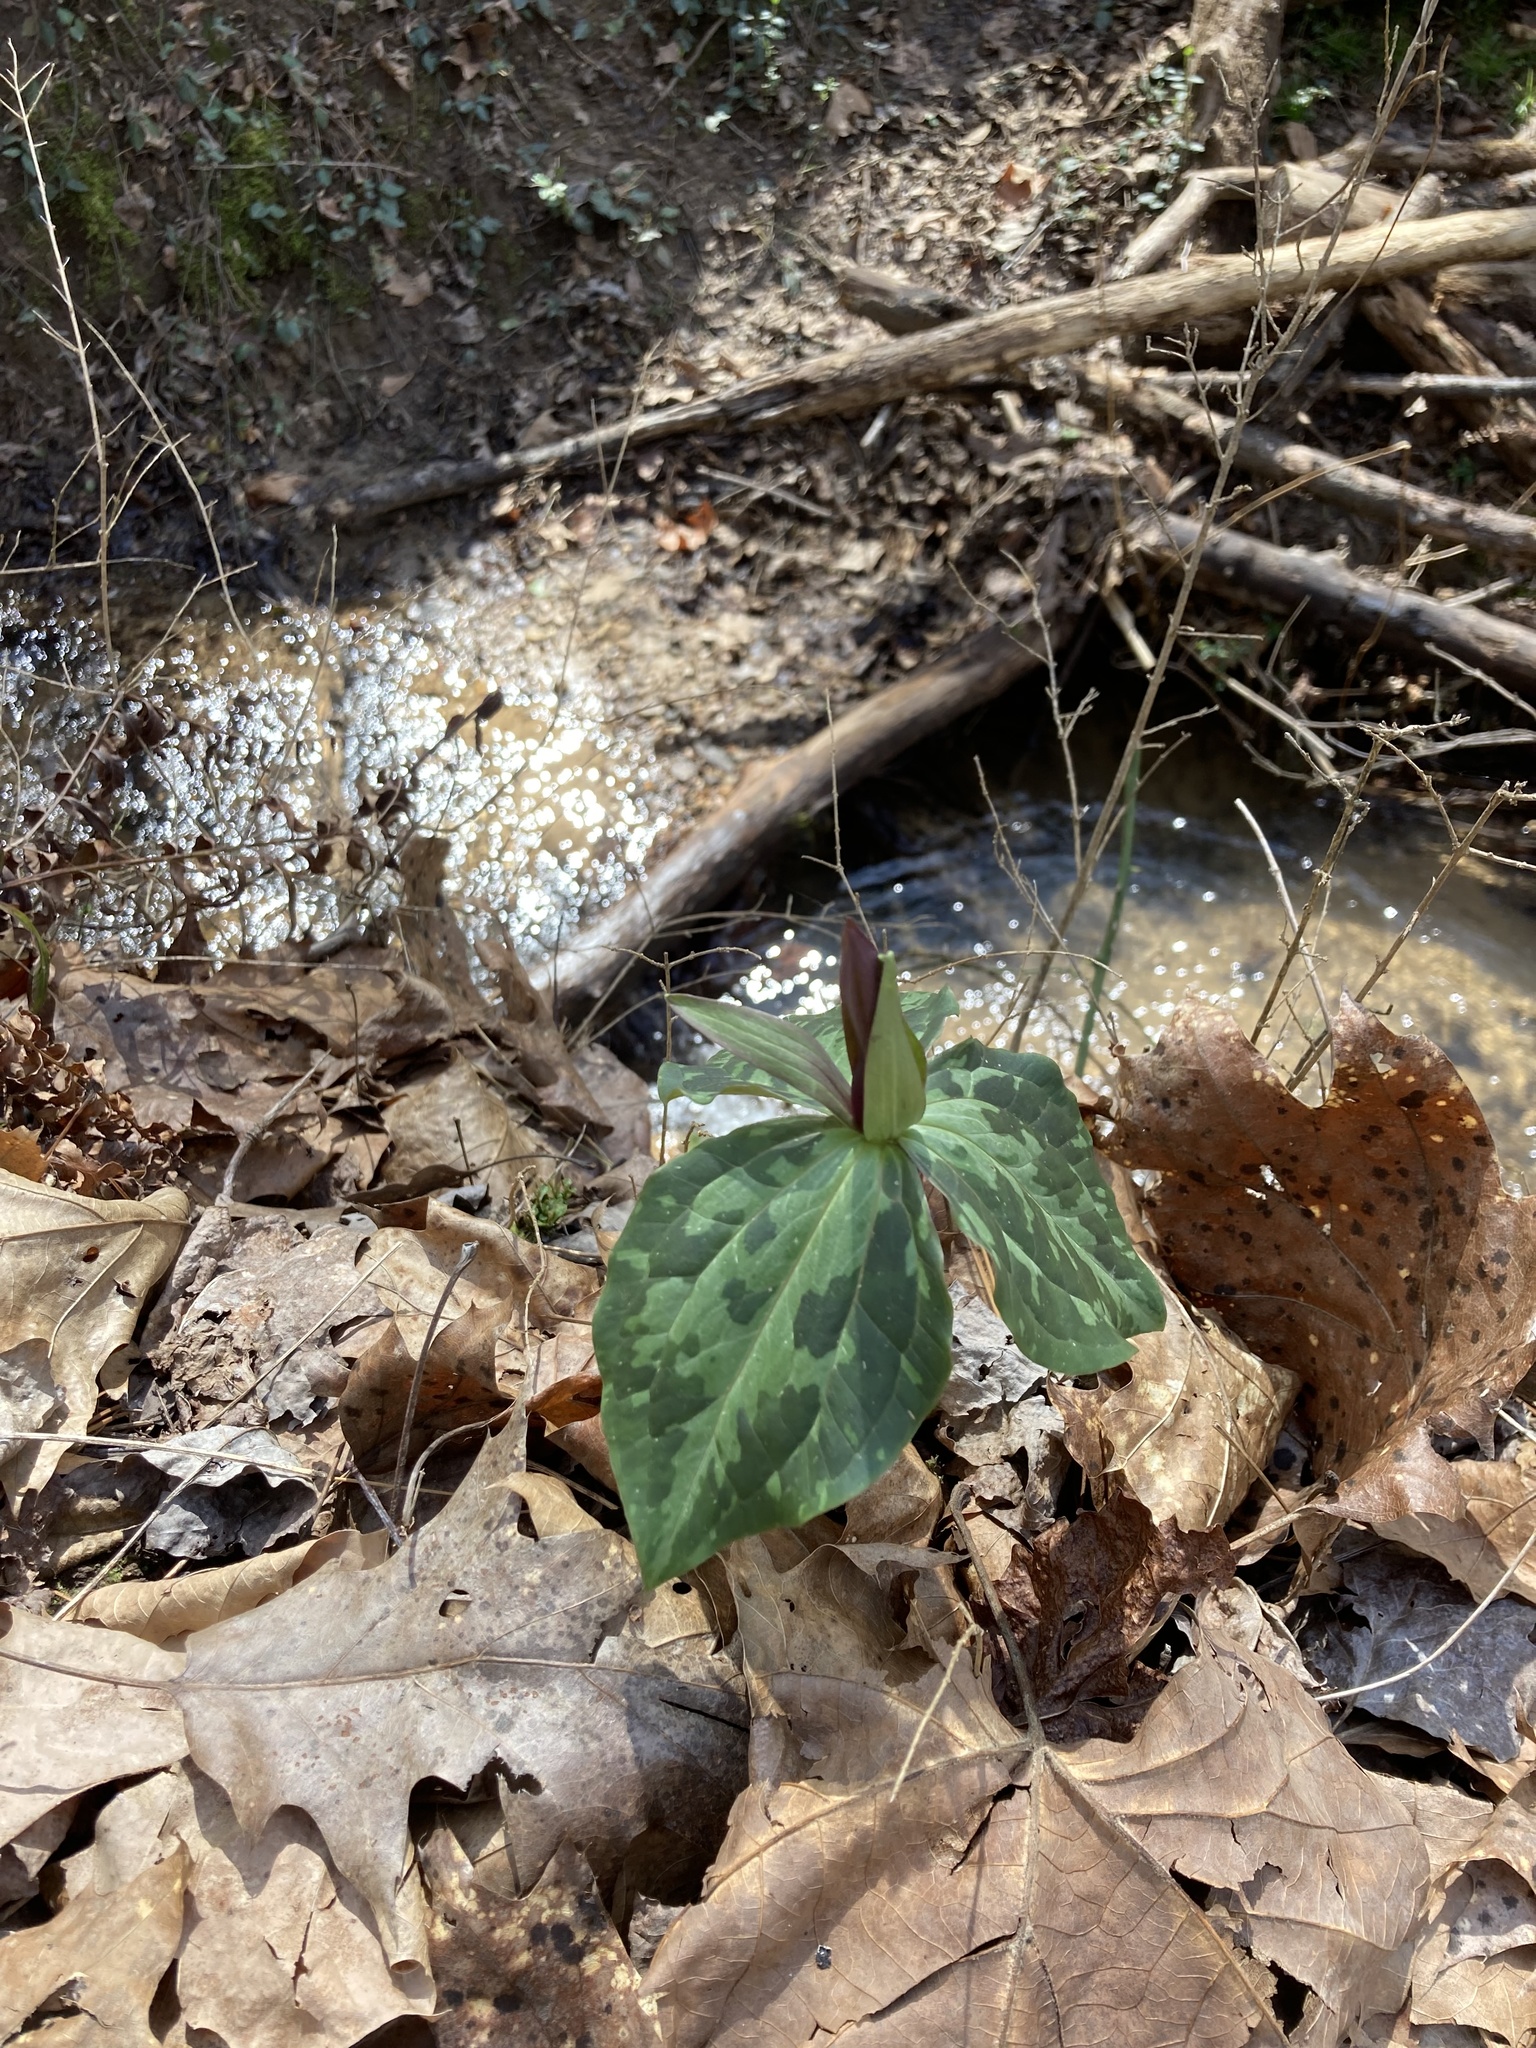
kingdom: Plantae
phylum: Tracheophyta
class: Liliopsida
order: Liliales
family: Melanthiaceae
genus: Trillium
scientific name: Trillium cuneatum
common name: Cuneate trillium
